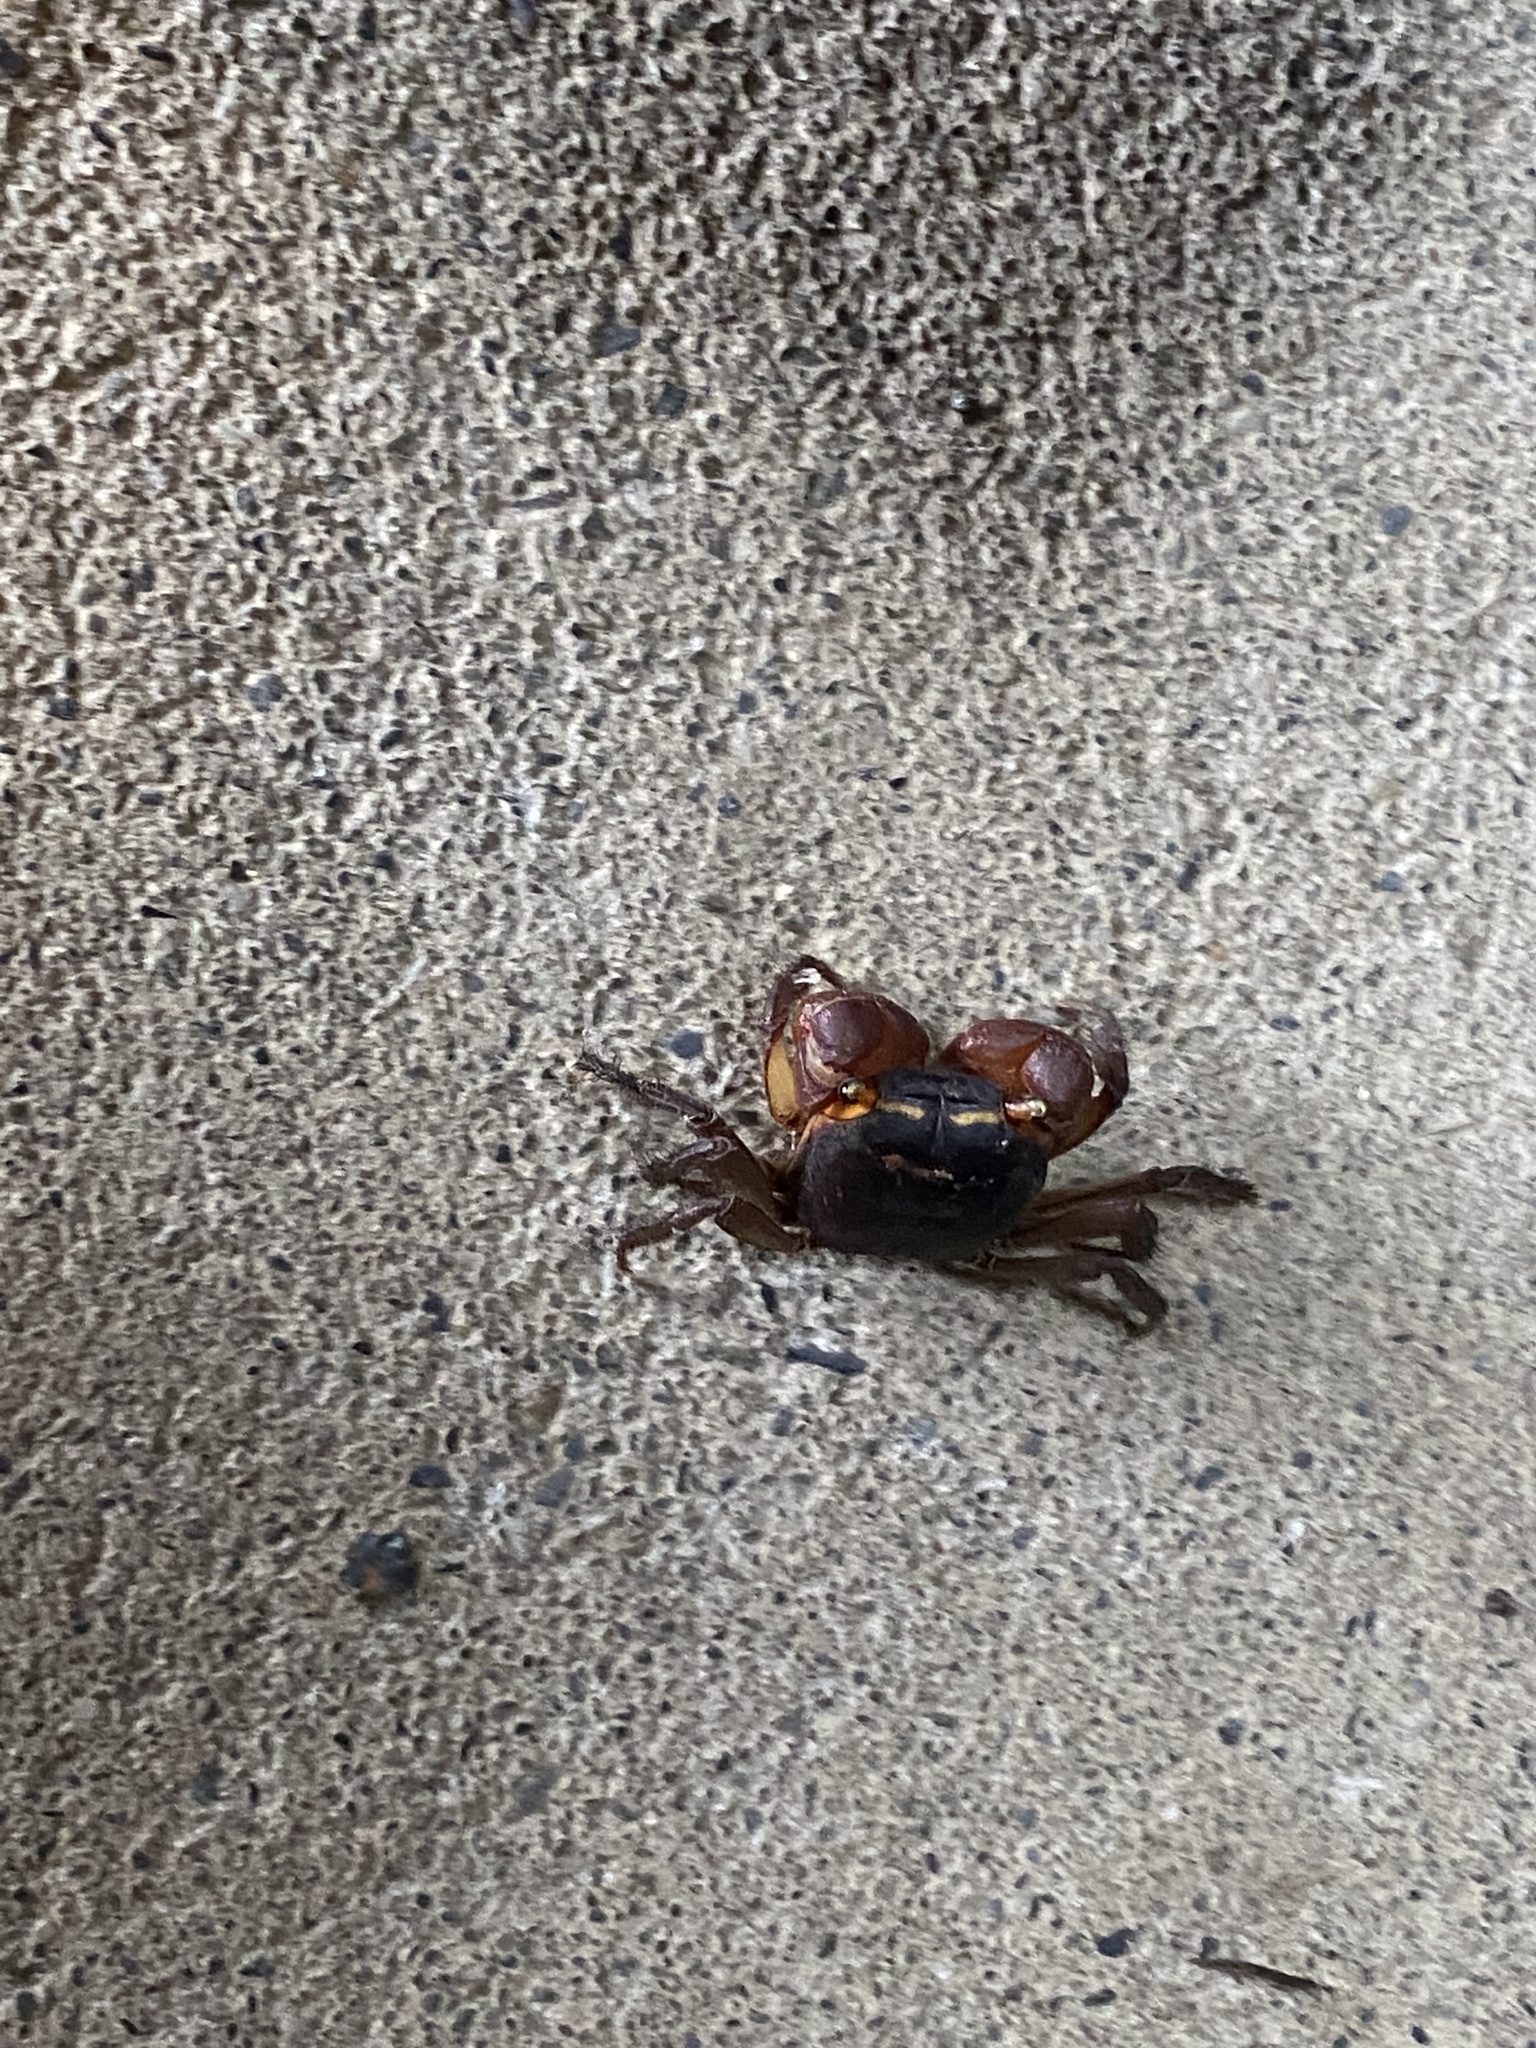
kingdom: Animalia
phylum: Arthropoda
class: Malacostraca
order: Decapoda
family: Sesarmidae
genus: Metasesarma
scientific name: Metasesarma aubryi
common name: Apple crab
